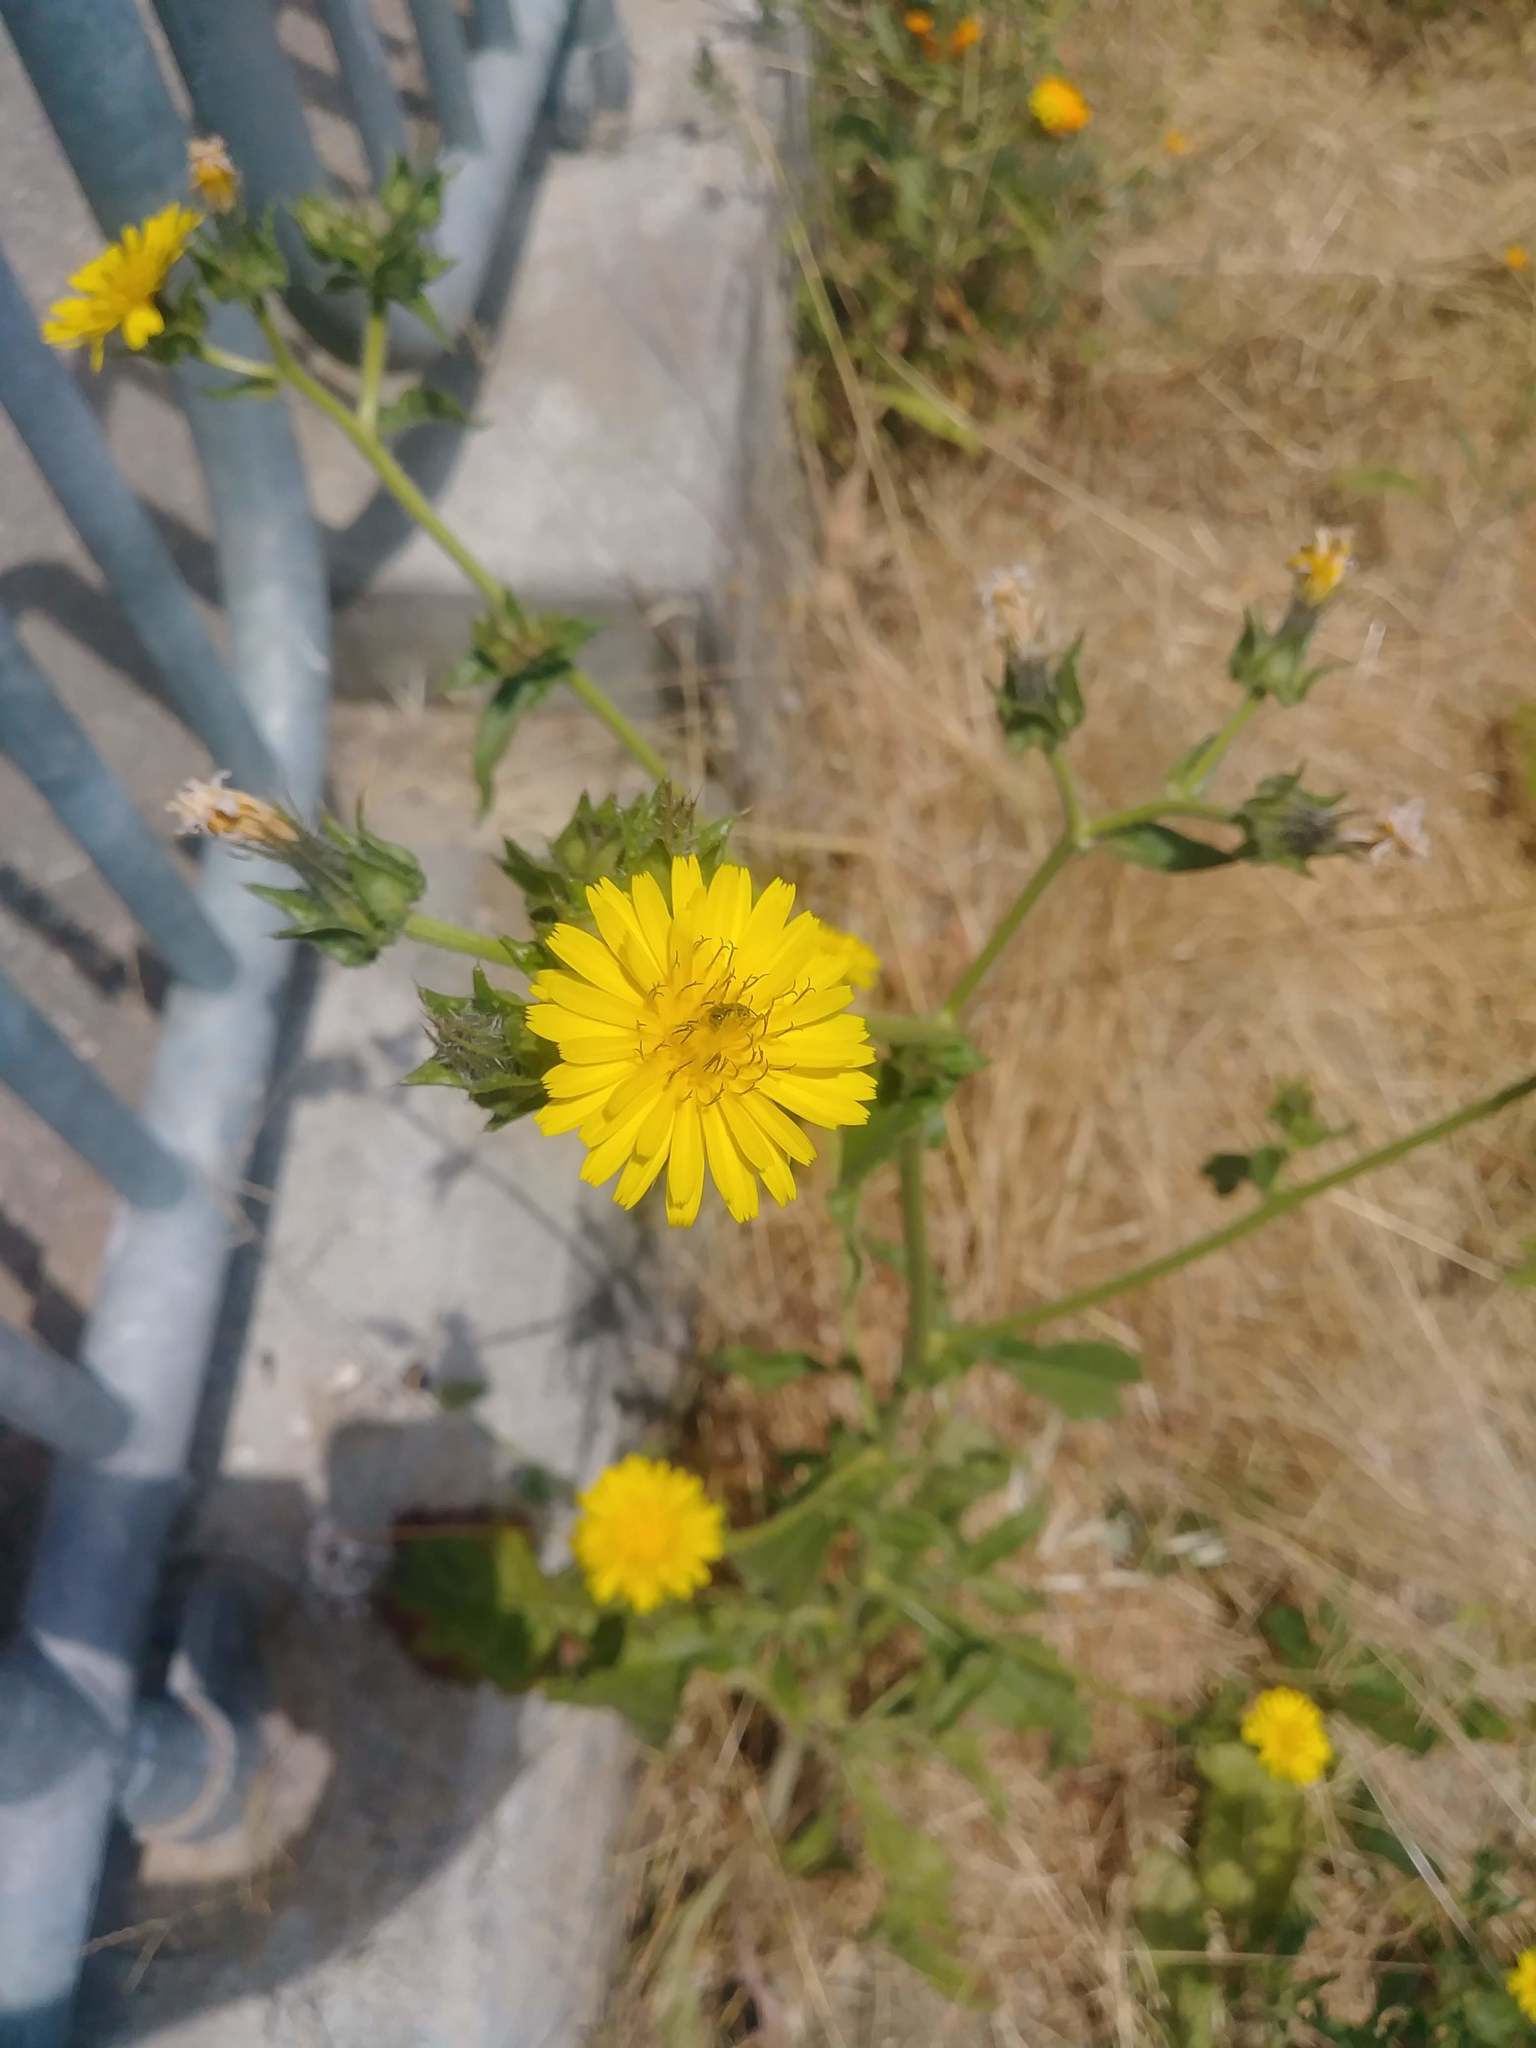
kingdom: Plantae
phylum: Tracheophyta
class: Magnoliopsida
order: Asterales
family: Asteraceae
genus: Helminthotheca
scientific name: Helminthotheca echioides
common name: Ox-tongue
